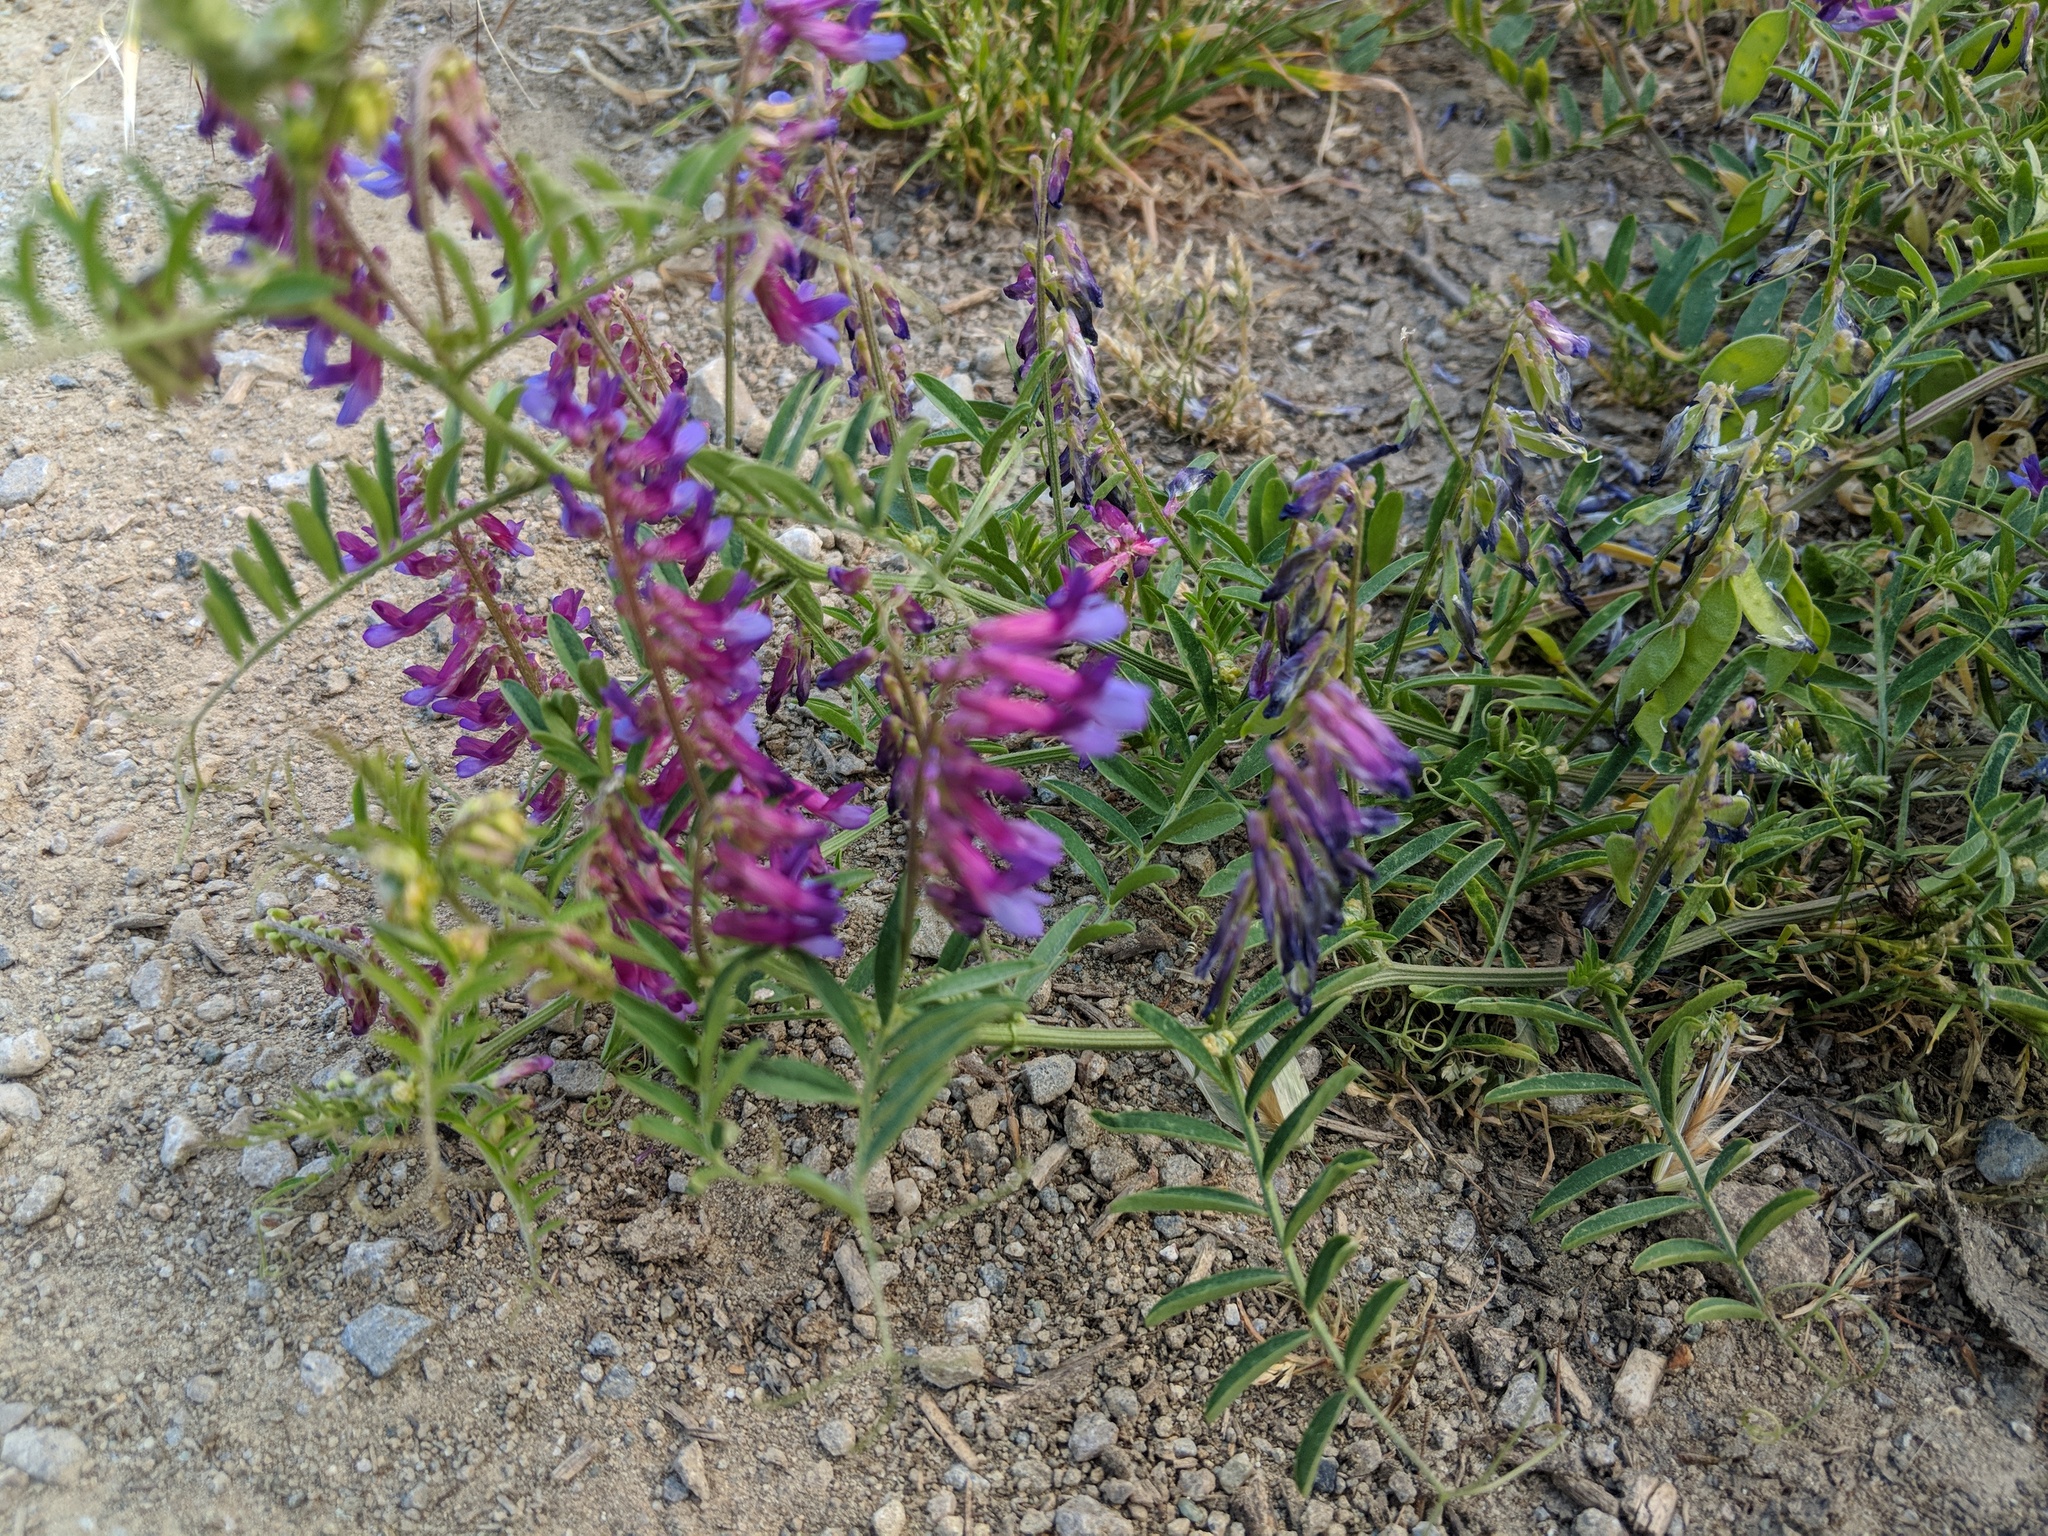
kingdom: Plantae
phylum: Tracheophyta
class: Magnoliopsida
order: Fabales
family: Fabaceae
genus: Vicia
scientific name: Vicia villosa
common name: Fodder vetch
